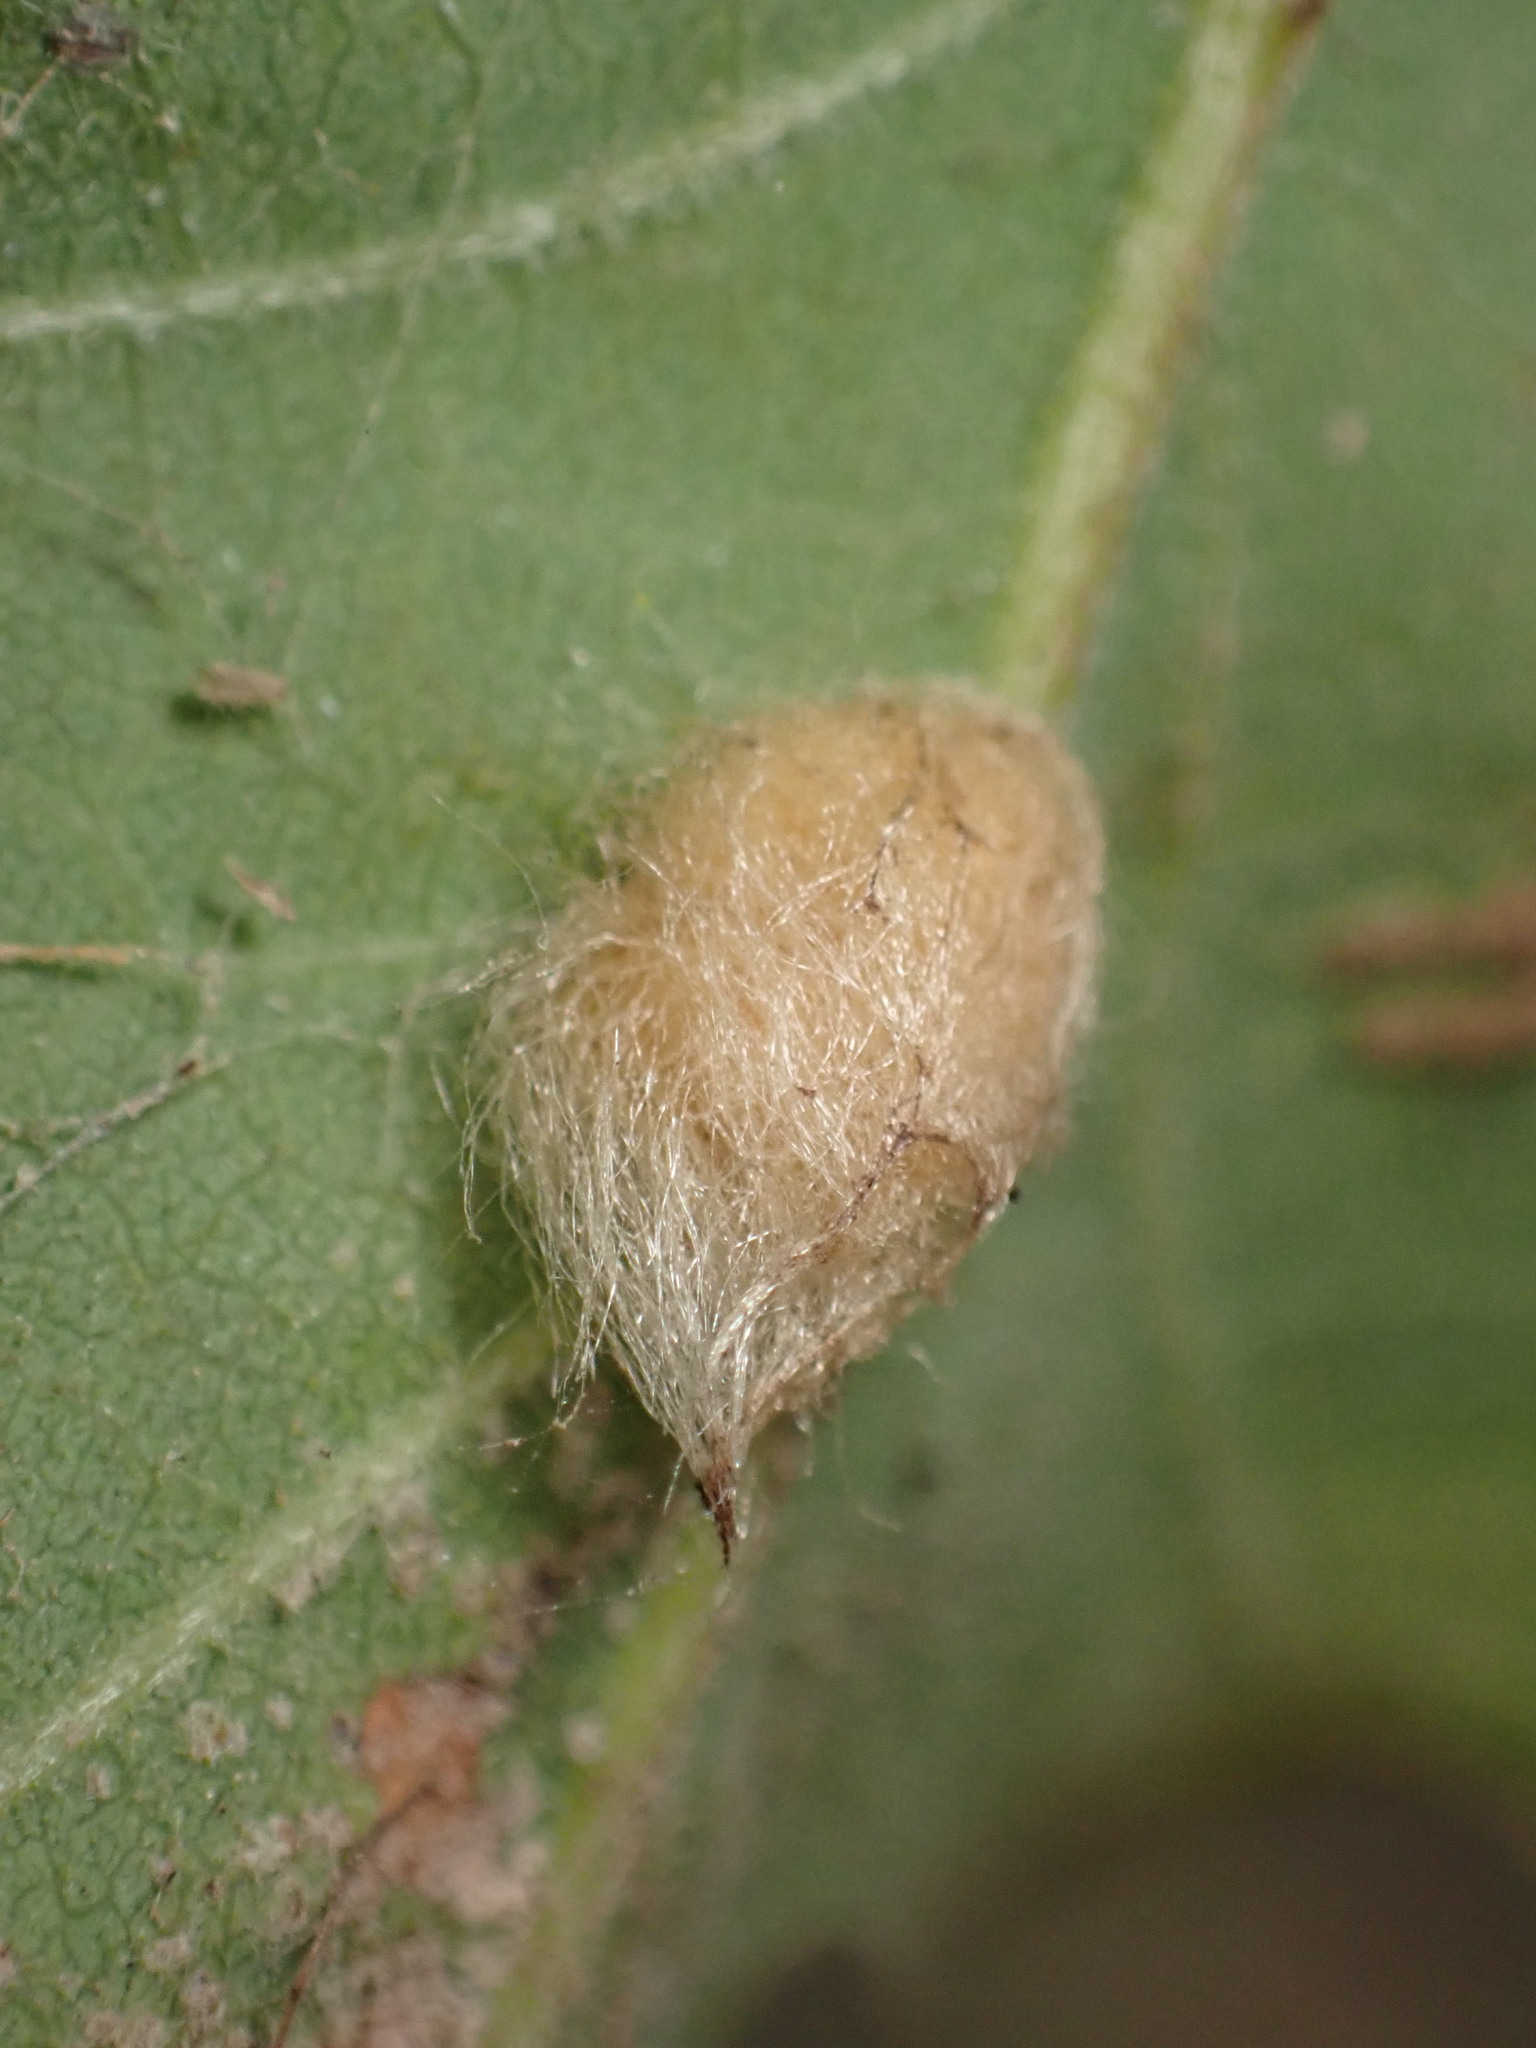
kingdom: Animalia
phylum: Arthropoda
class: Insecta
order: Hymenoptera
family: Cynipidae
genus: Andricus
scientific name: Andricus Druon fullawayi
